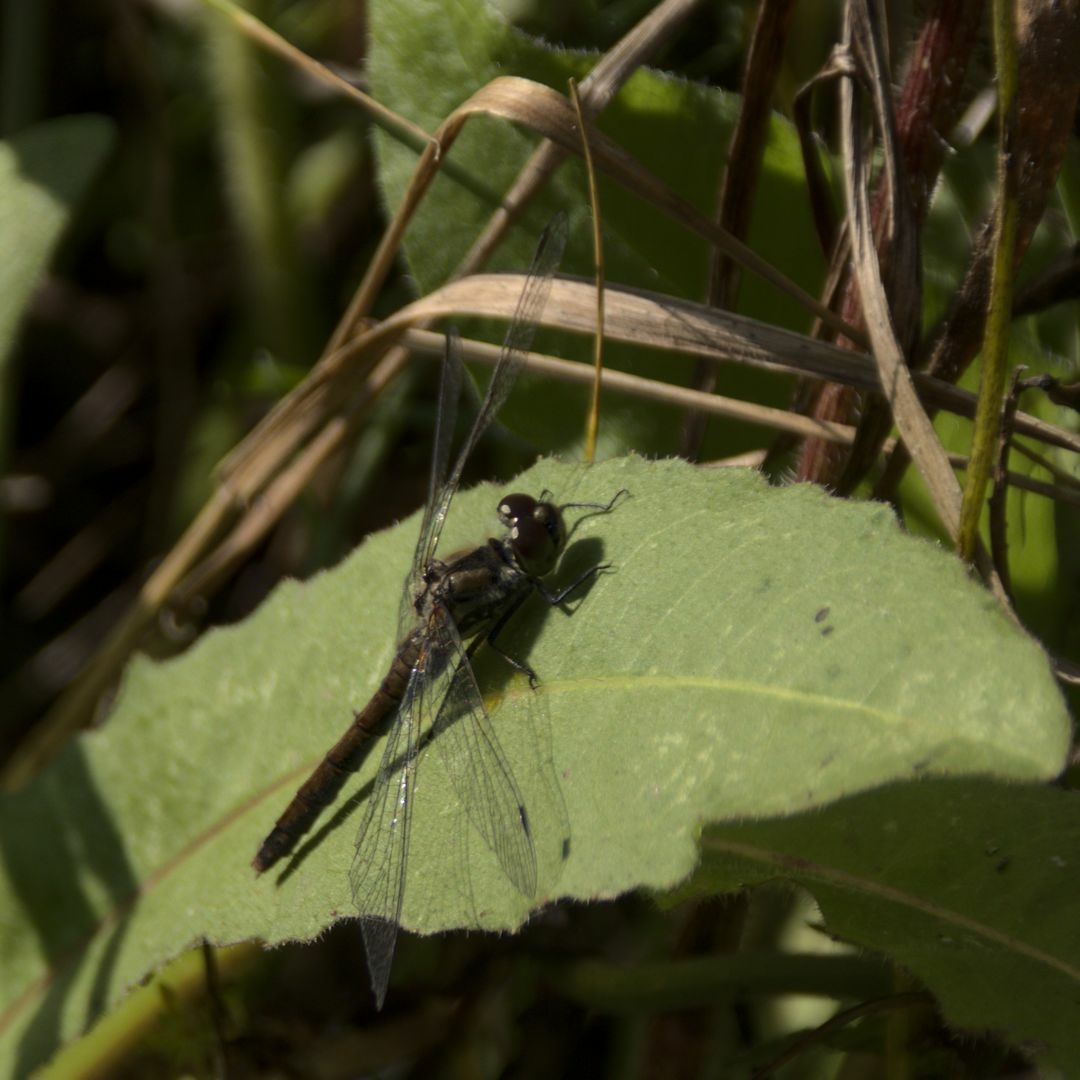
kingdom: Animalia
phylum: Arthropoda
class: Insecta
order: Odonata
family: Libellulidae
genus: Sympetrum
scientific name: Sympetrum danae
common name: Black darter
